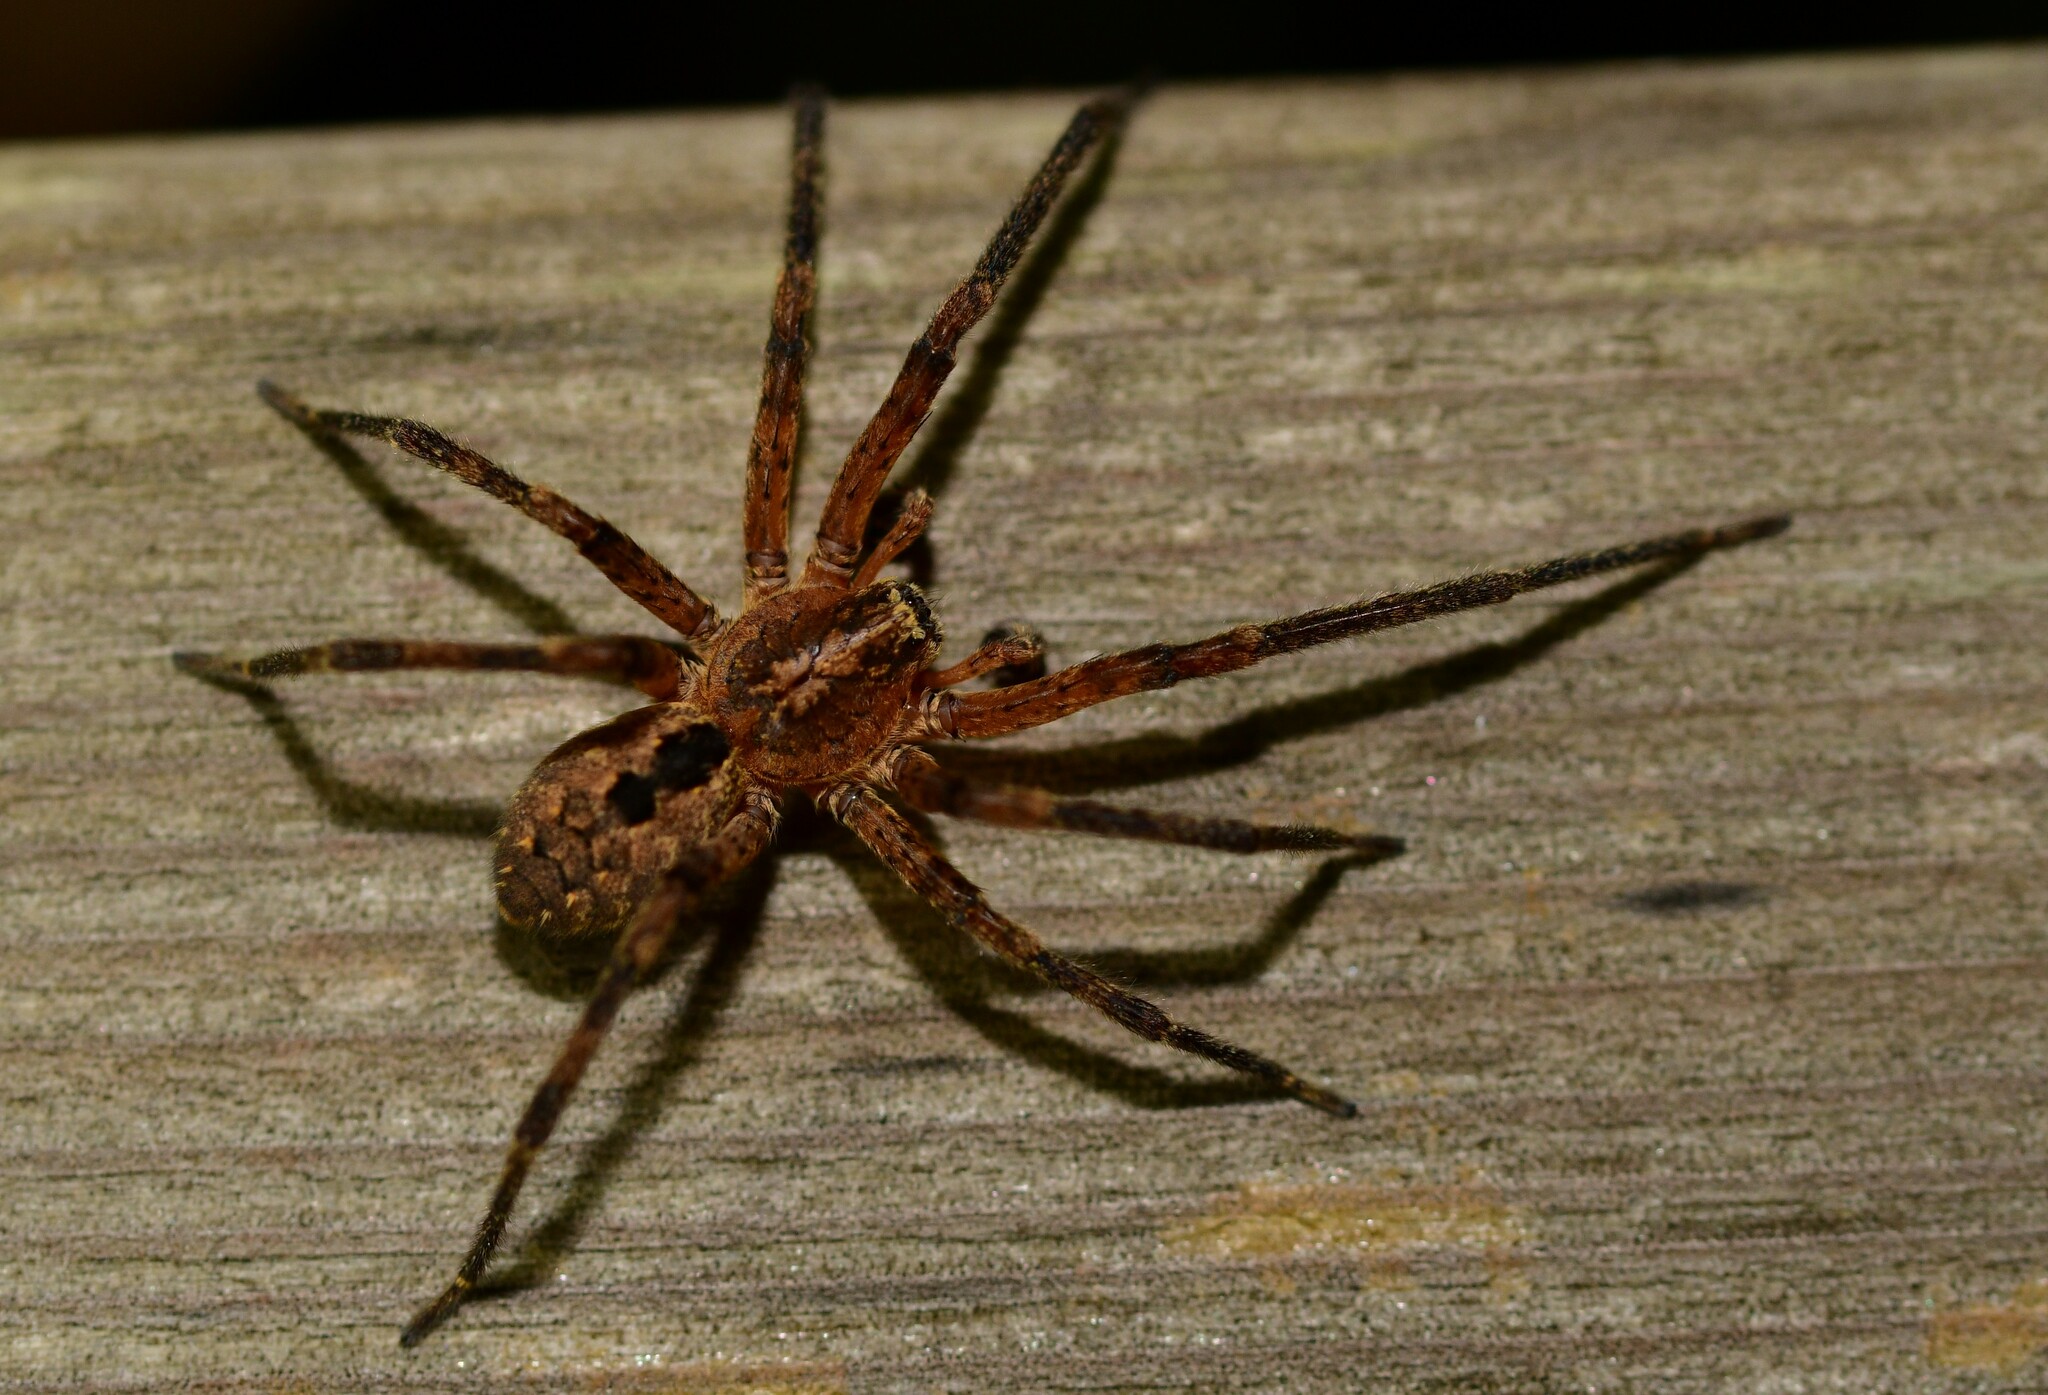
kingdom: Animalia
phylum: Arthropoda
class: Arachnida
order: Araneae
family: Zoropsidae
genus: Zoropsis
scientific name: Zoropsis spinimana
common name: Zoropsid spider
